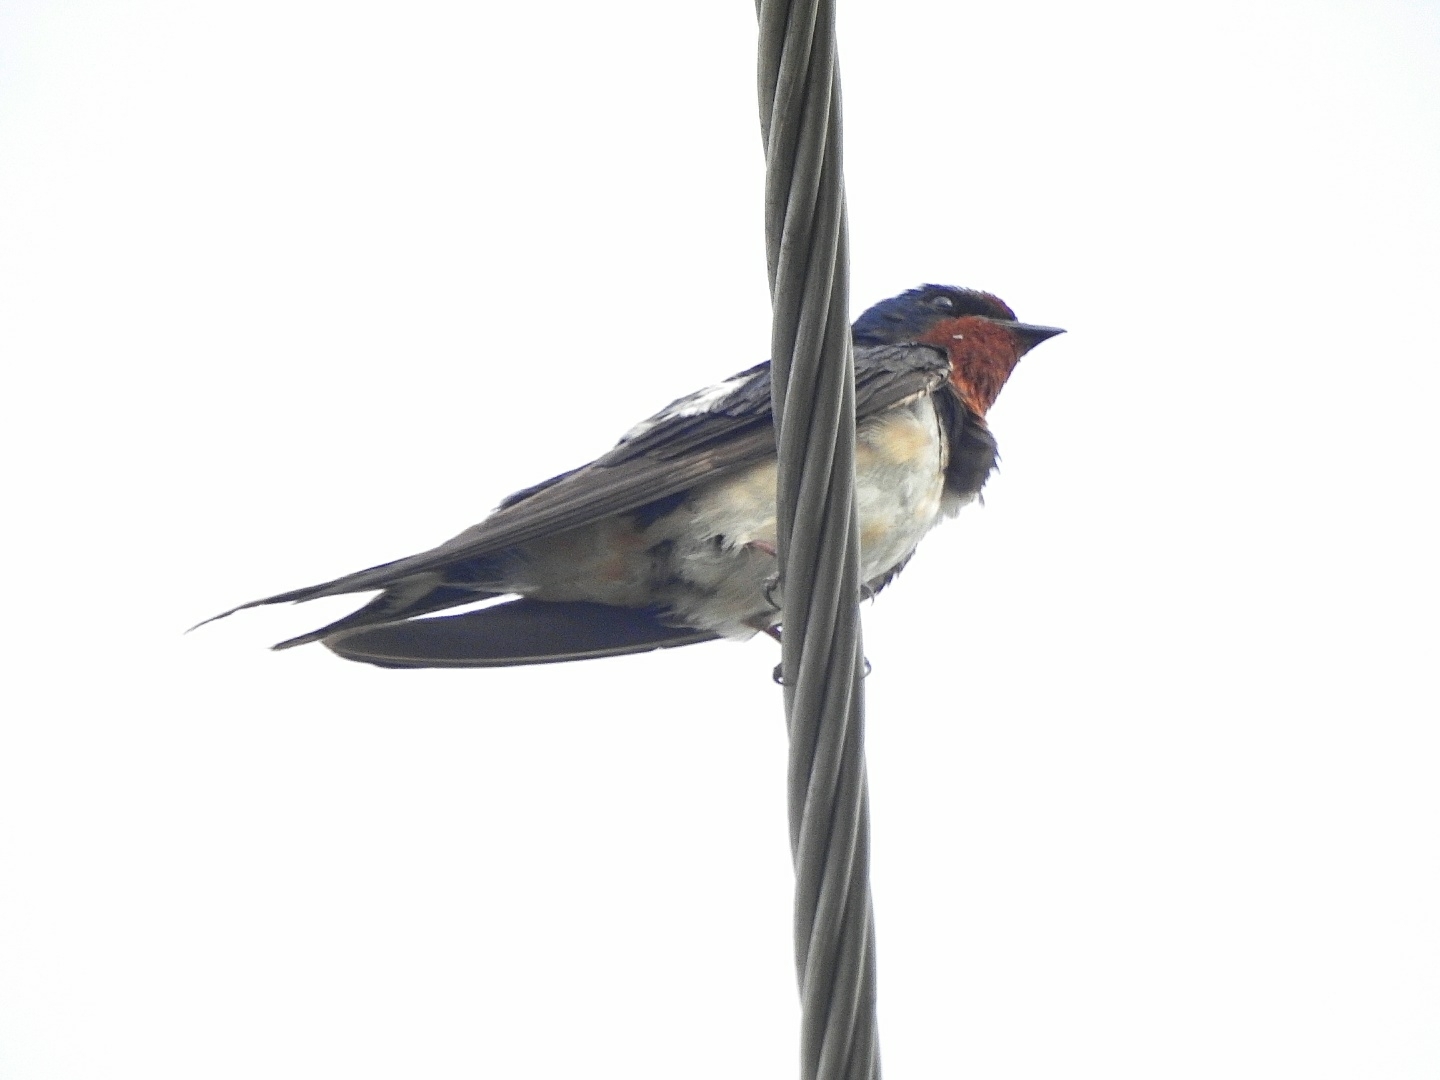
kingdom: Animalia
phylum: Chordata
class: Aves
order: Passeriformes
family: Hirundinidae
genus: Hirundo
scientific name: Hirundo rustica
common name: Barn swallow
